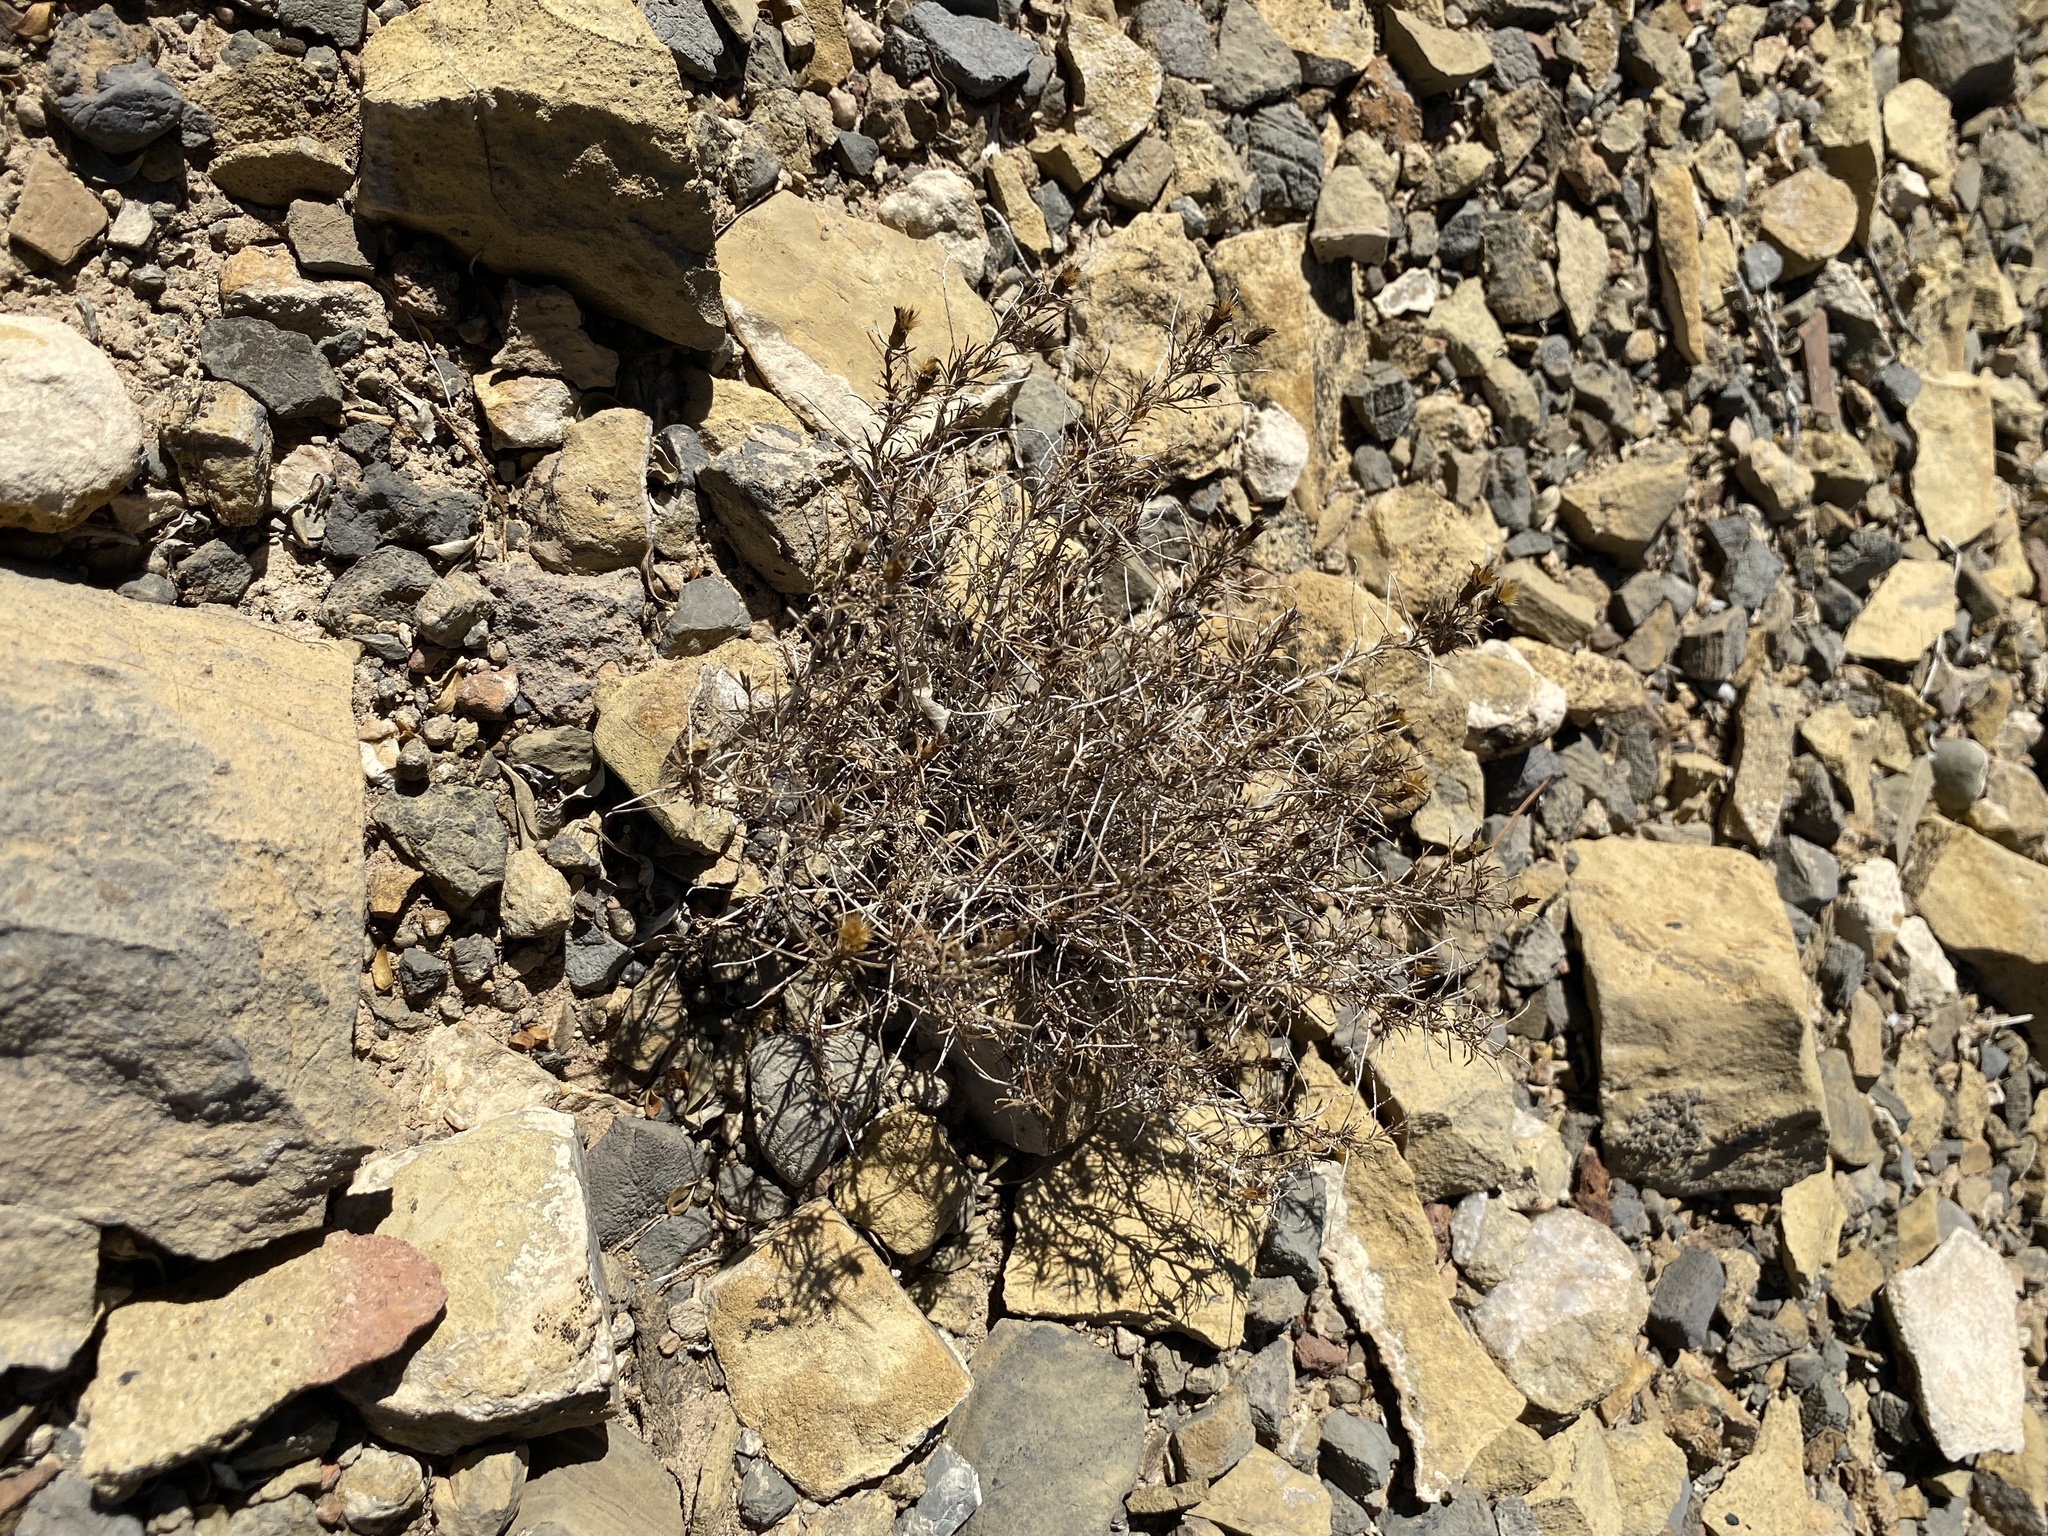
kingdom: Plantae
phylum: Tracheophyta
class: Magnoliopsida
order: Asterales
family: Asteraceae
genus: Thymophylla
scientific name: Thymophylla acerosa
